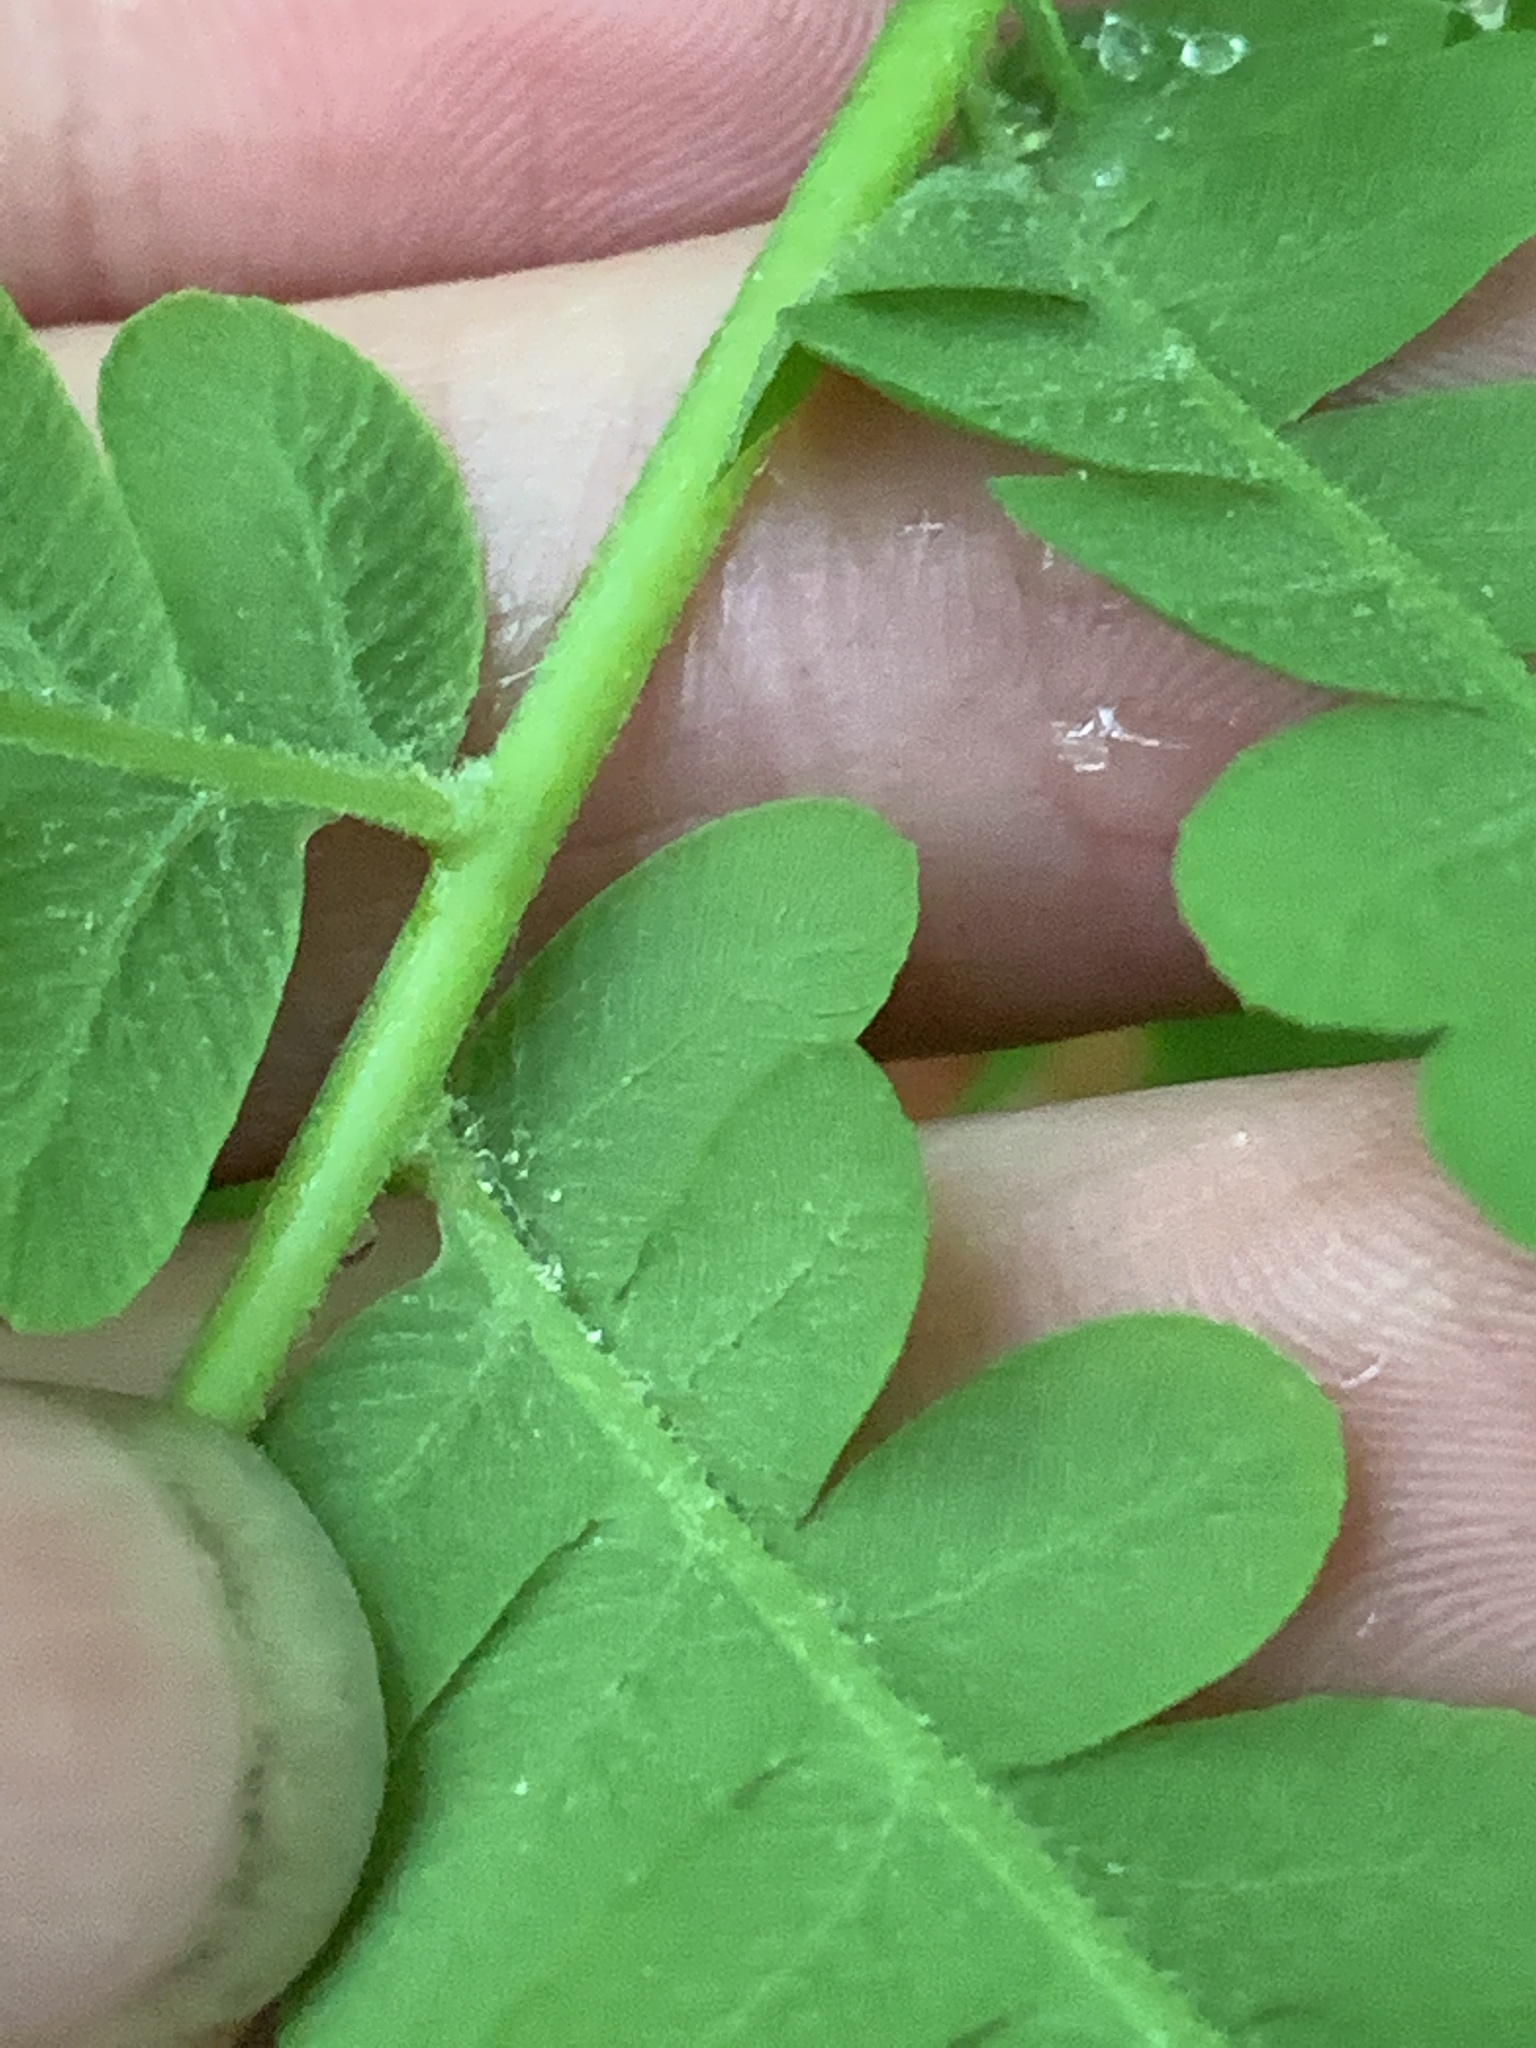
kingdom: Plantae
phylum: Tracheophyta
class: Polypodiopsida
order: Osmundales
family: Osmundaceae
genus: Claytosmunda
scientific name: Claytosmunda claytoniana
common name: Clayton's fern
